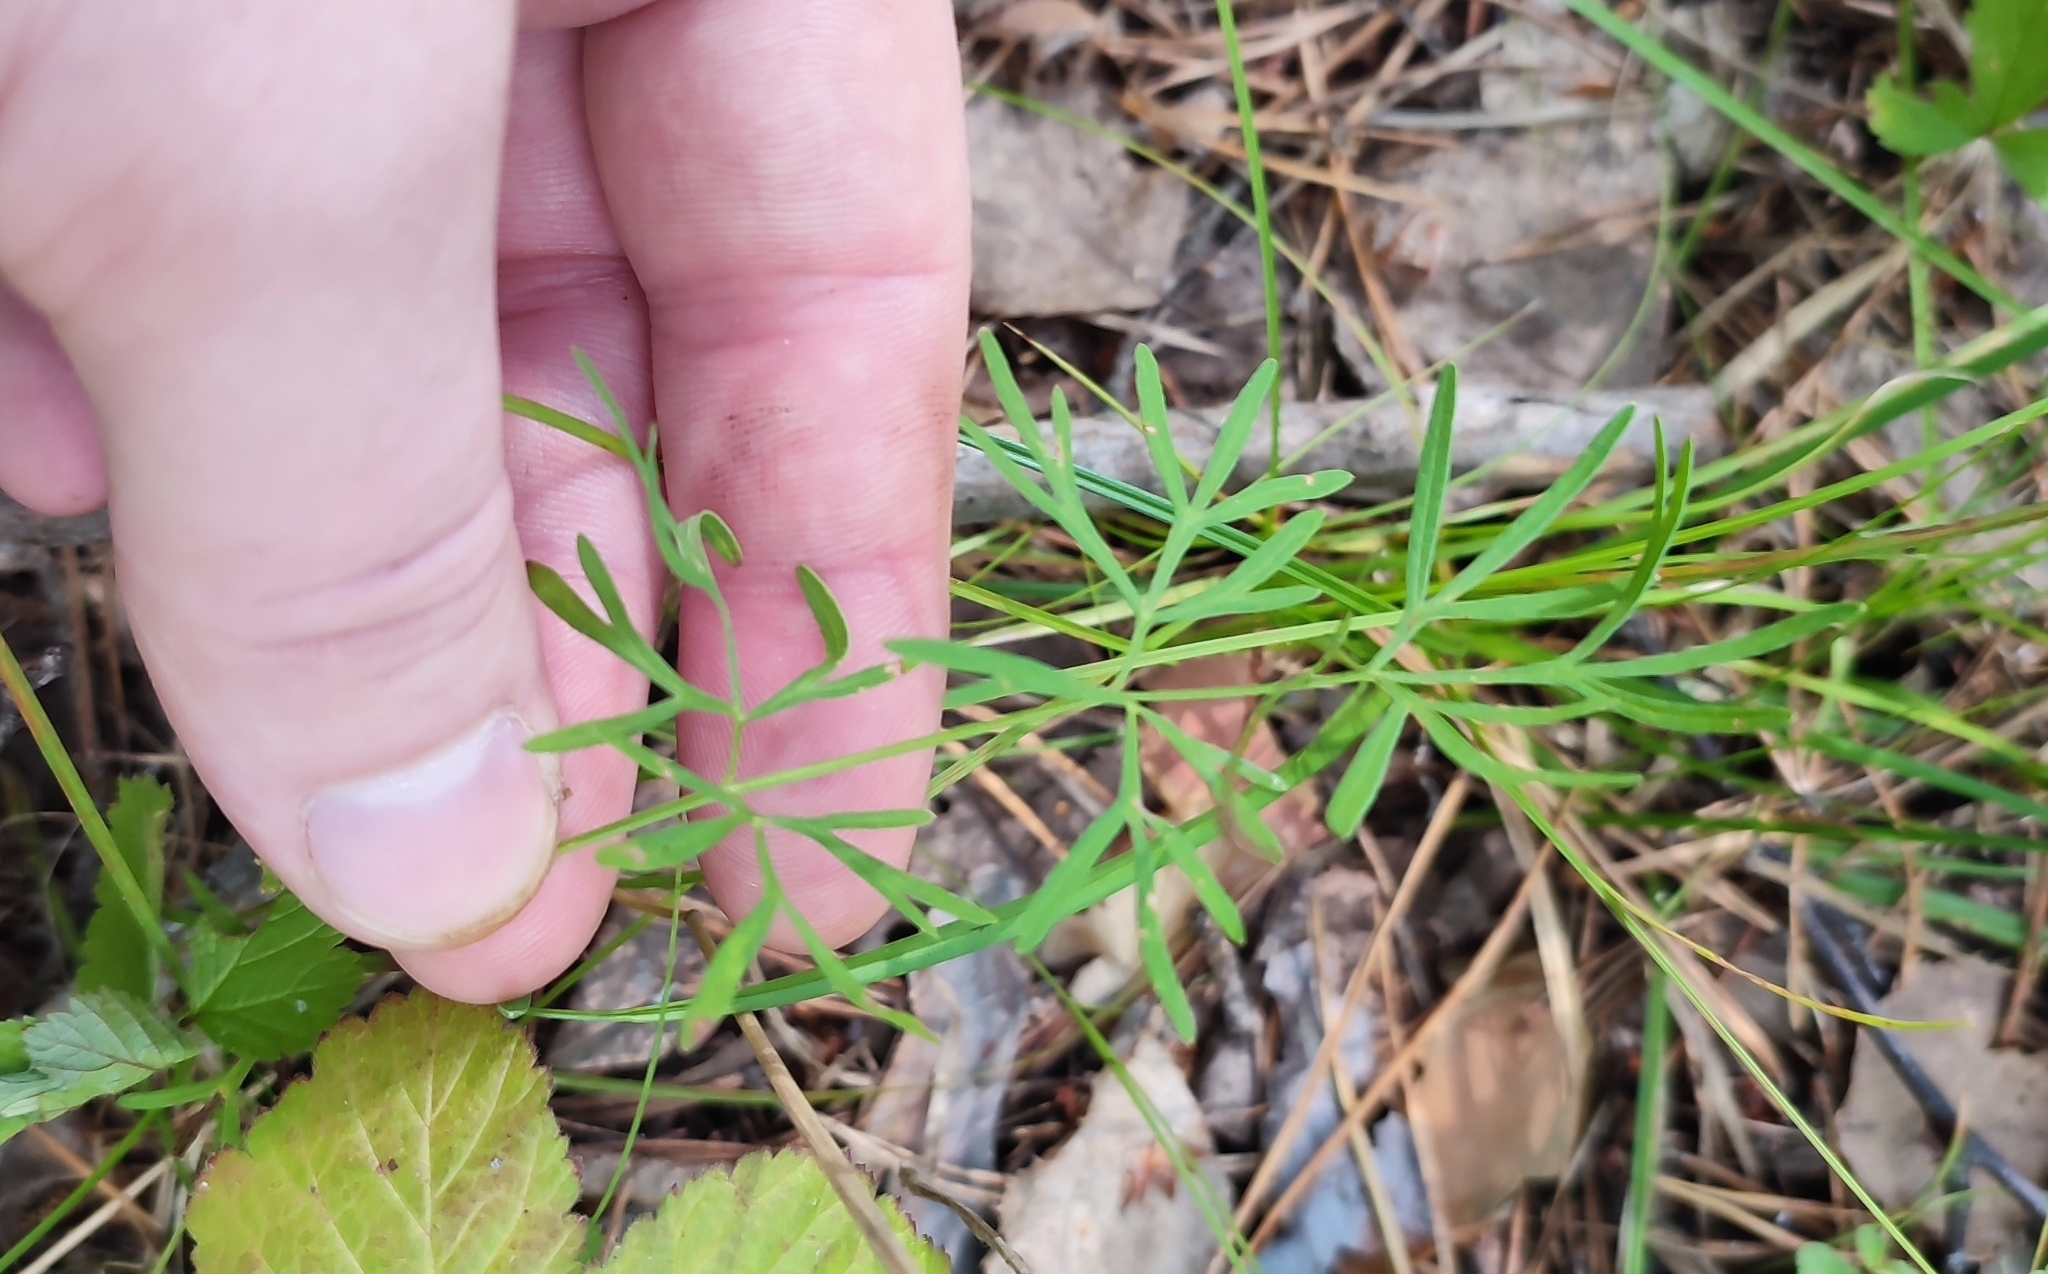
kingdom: Plantae
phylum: Tracheophyta
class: Magnoliopsida
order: Apiales
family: Apiaceae
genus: Kadenia
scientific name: Kadenia dubia
